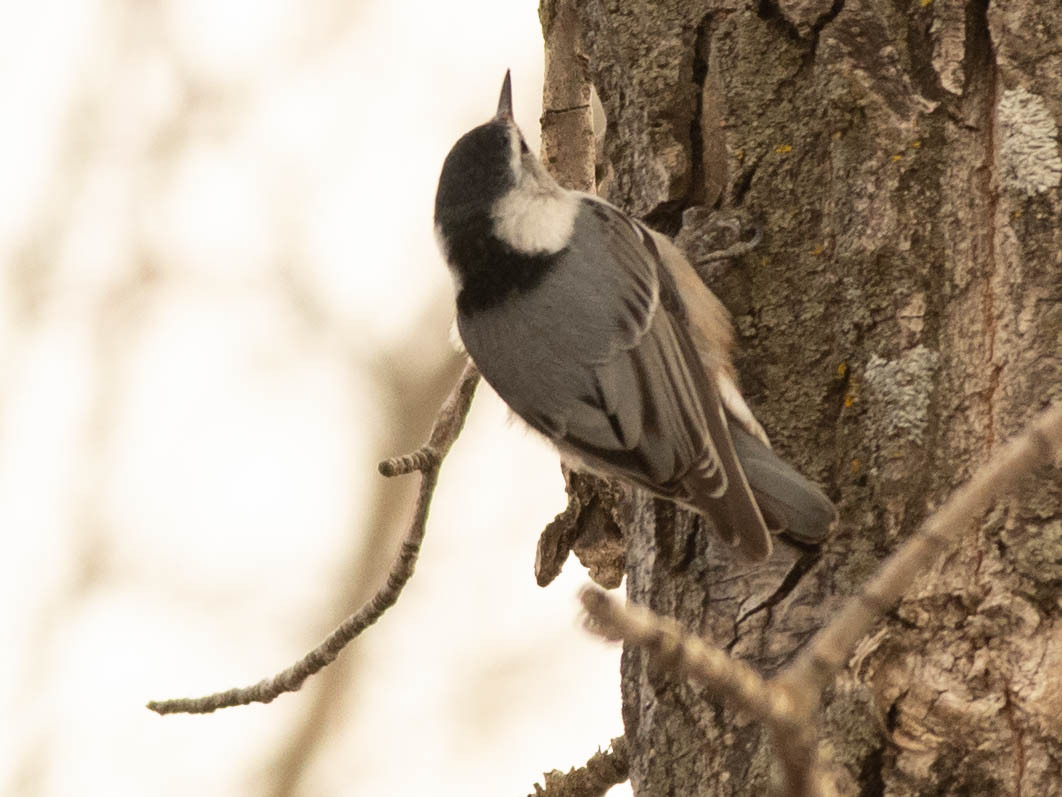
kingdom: Animalia
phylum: Chordata
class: Aves
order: Passeriformes
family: Sittidae
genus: Sitta
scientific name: Sitta carolinensis
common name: White-breasted nuthatch
